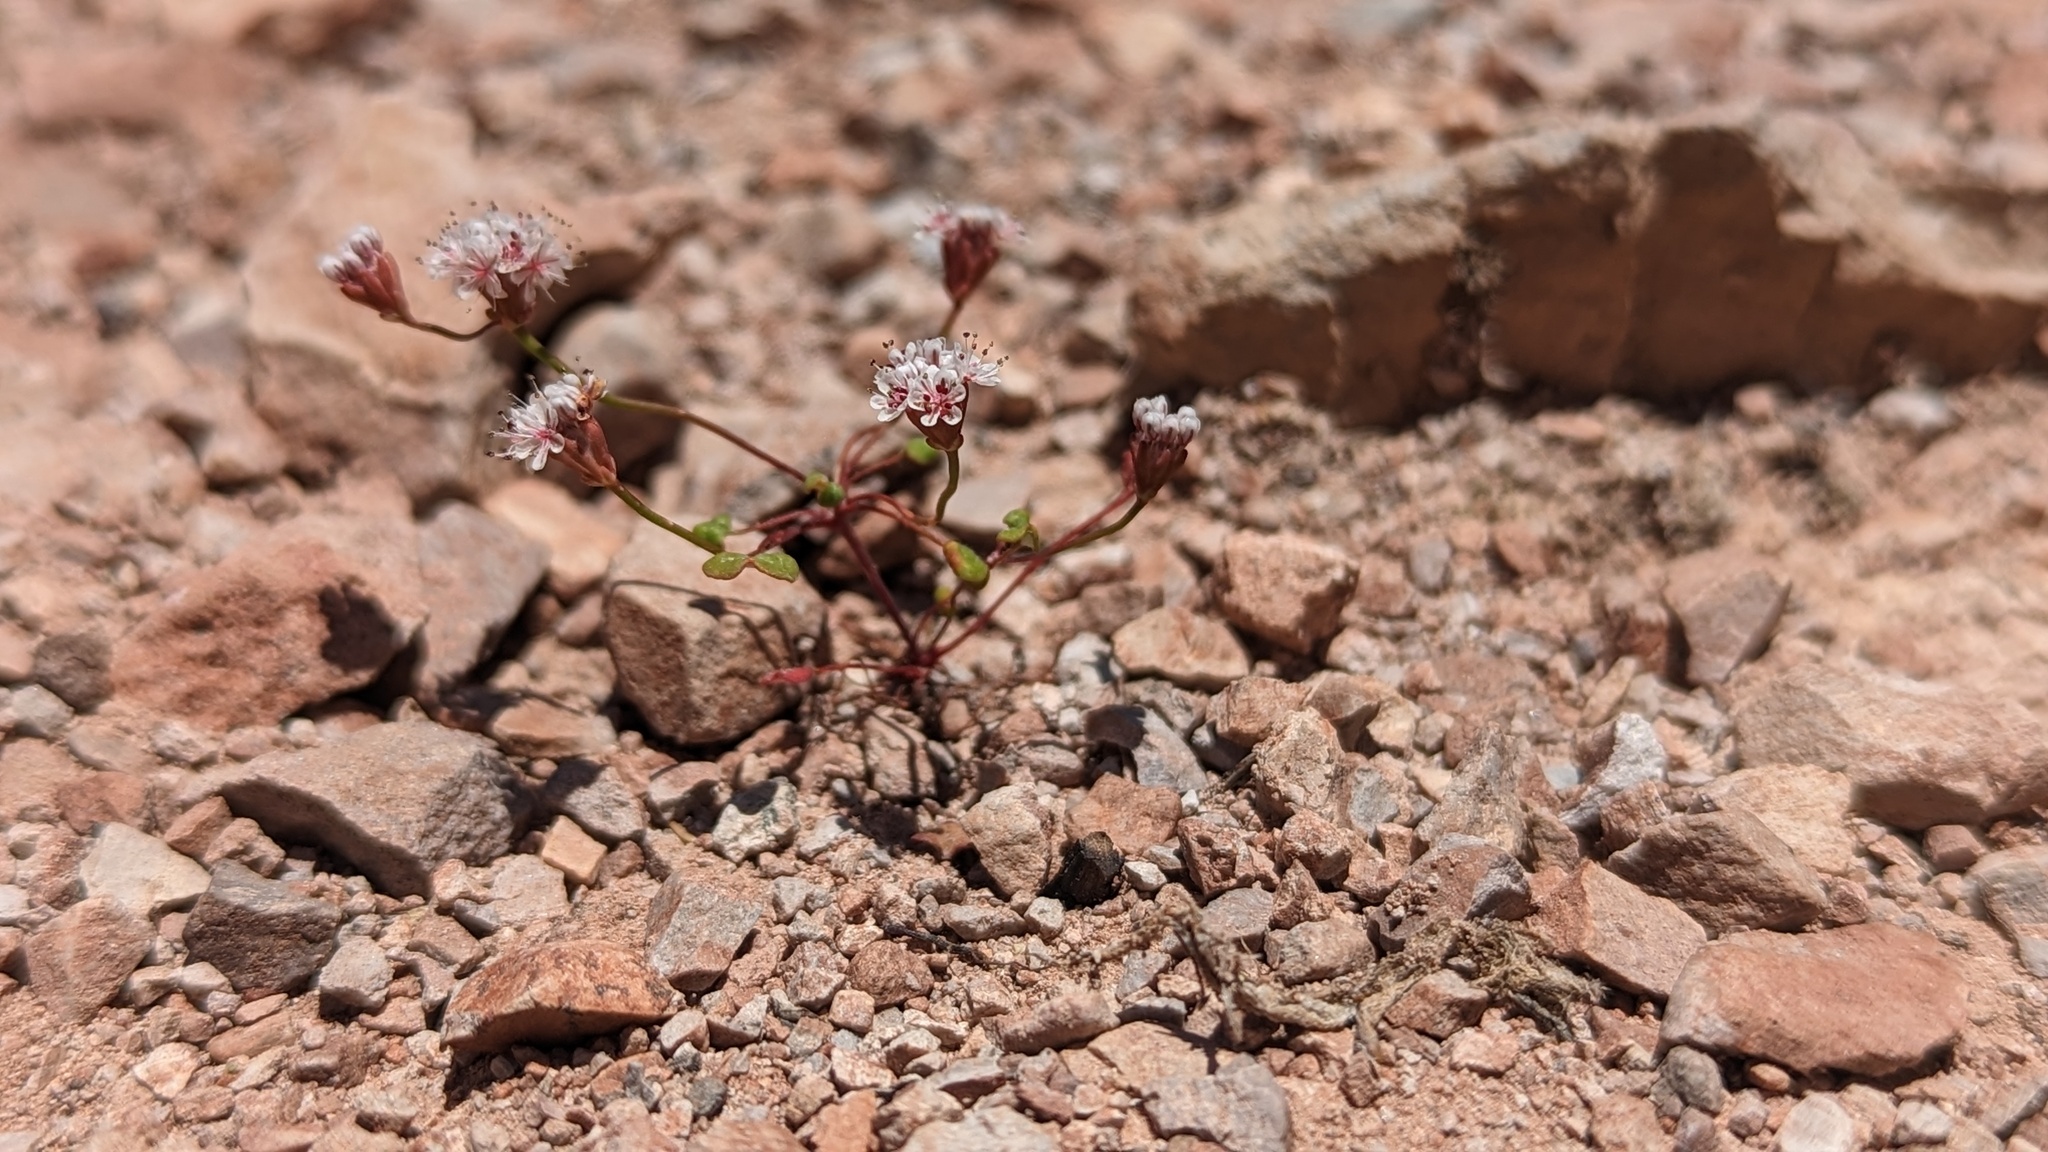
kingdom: Plantae
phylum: Tracheophyta
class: Magnoliopsida
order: Caryophyllales
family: Polygonaceae
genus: Eriogonum
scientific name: Eriogonum nortonii
